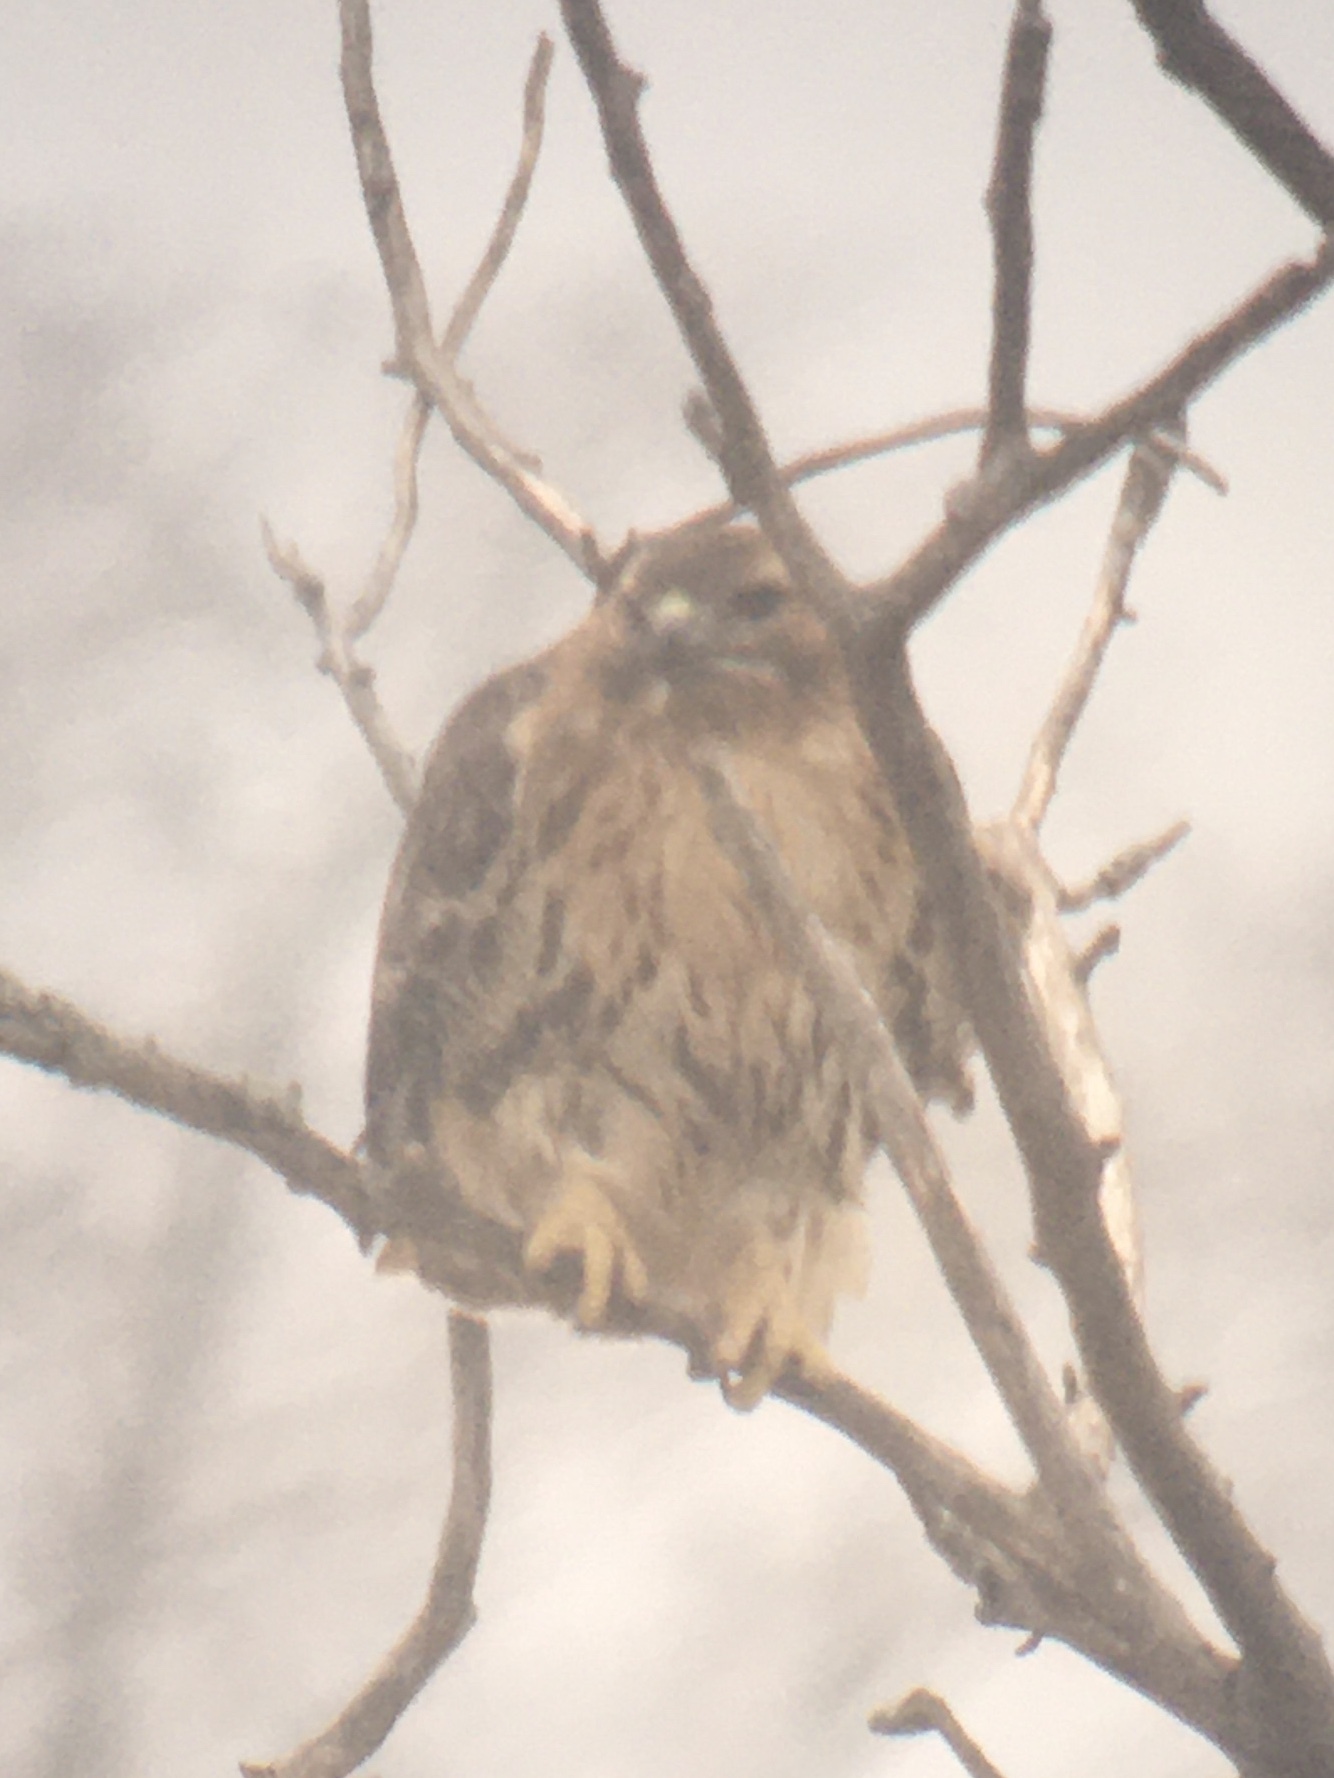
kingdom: Animalia
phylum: Chordata
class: Aves
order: Accipitriformes
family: Accipitridae
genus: Buteo
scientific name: Buteo jamaicensis
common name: Red-tailed hawk
